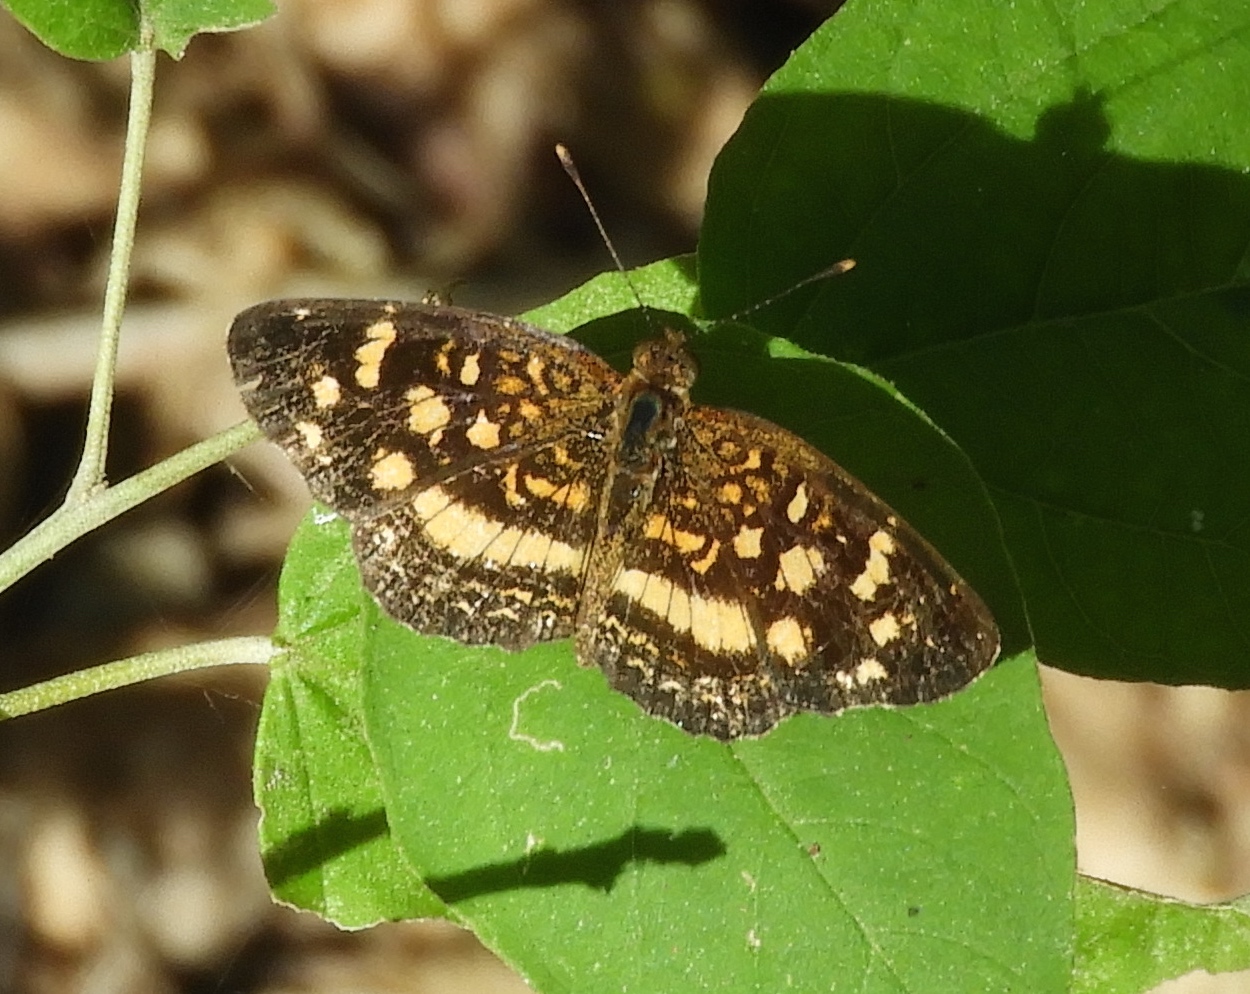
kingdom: Animalia
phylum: Arthropoda
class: Insecta
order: Lepidoptera
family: Nymphalidae
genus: Anthanassa
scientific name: Anthanassa tulcis
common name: Pale-banded crescent
